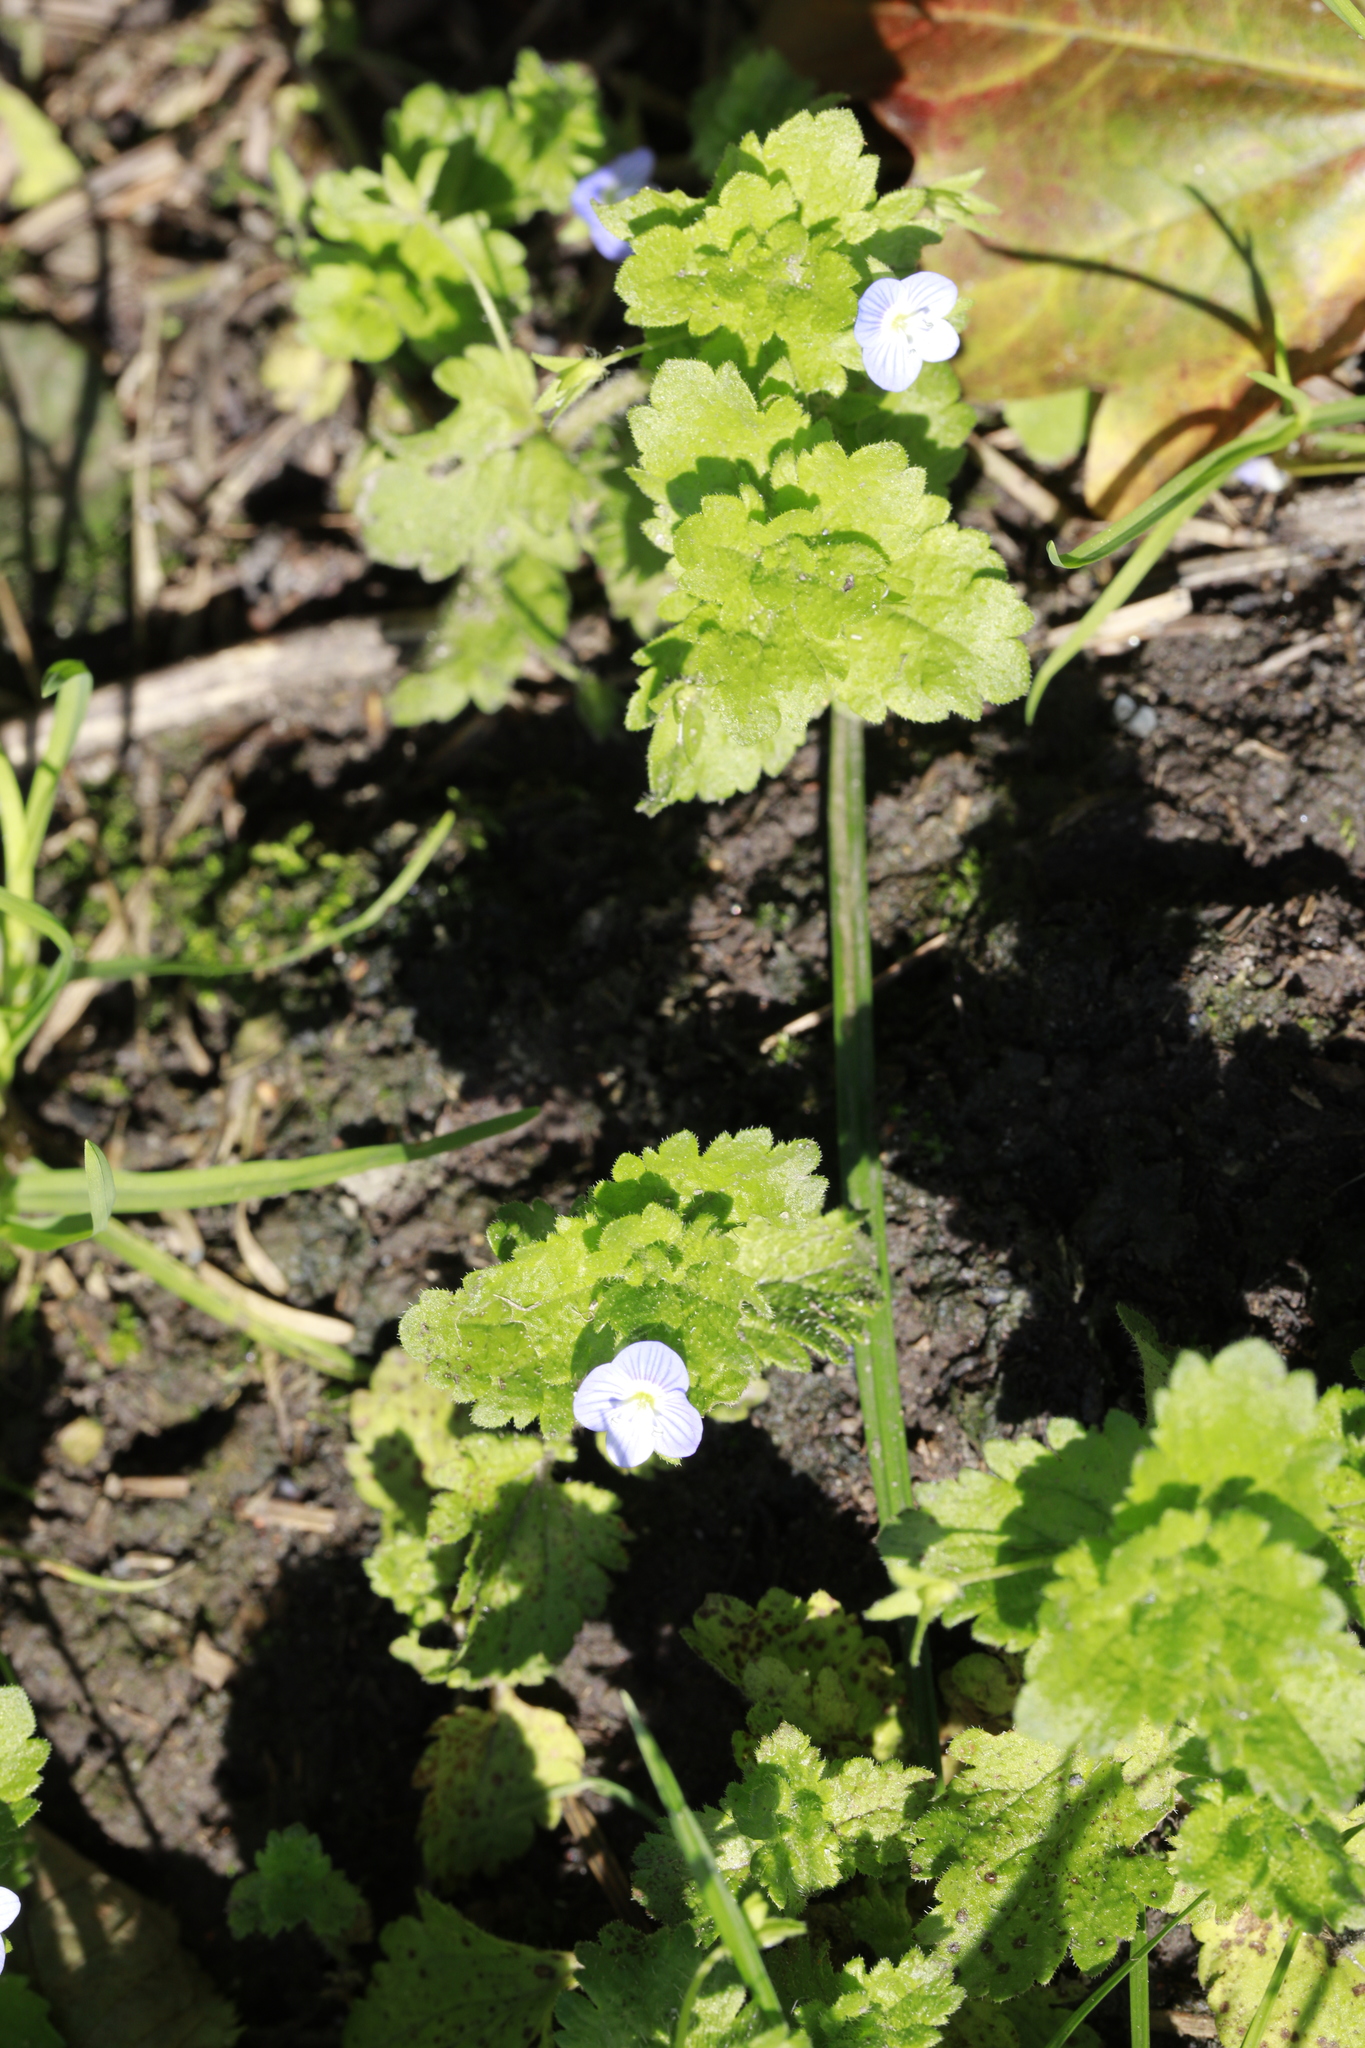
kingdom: Plantae
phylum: Tracheophyta
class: Magnoliopsida
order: Lamiales
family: Plantaginaceae
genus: Veronica
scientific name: Veronica persica
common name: Common field-speedwell
